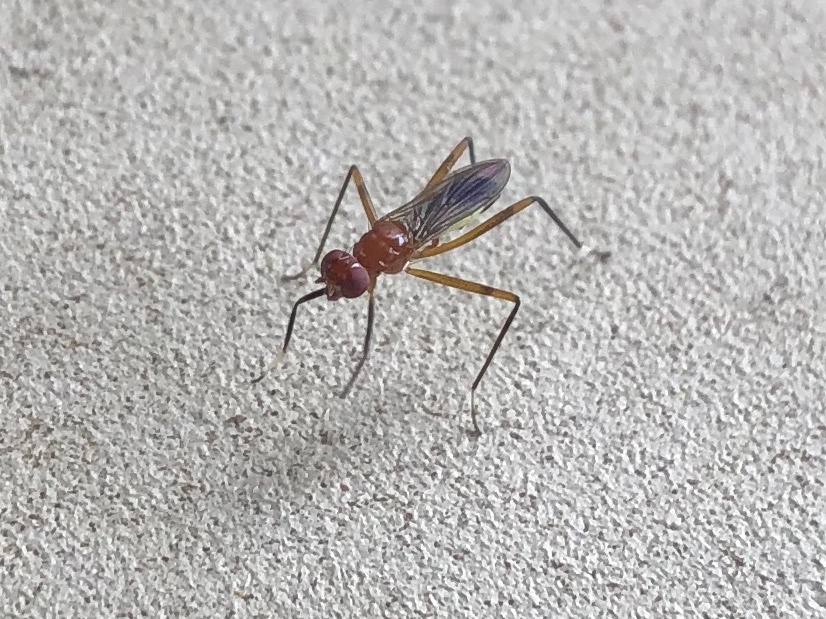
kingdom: Animalia
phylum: Arthropoda
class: Insecta
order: Diptera
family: Micropezidae
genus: Grallipeza
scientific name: Grallipeza nebulosa
